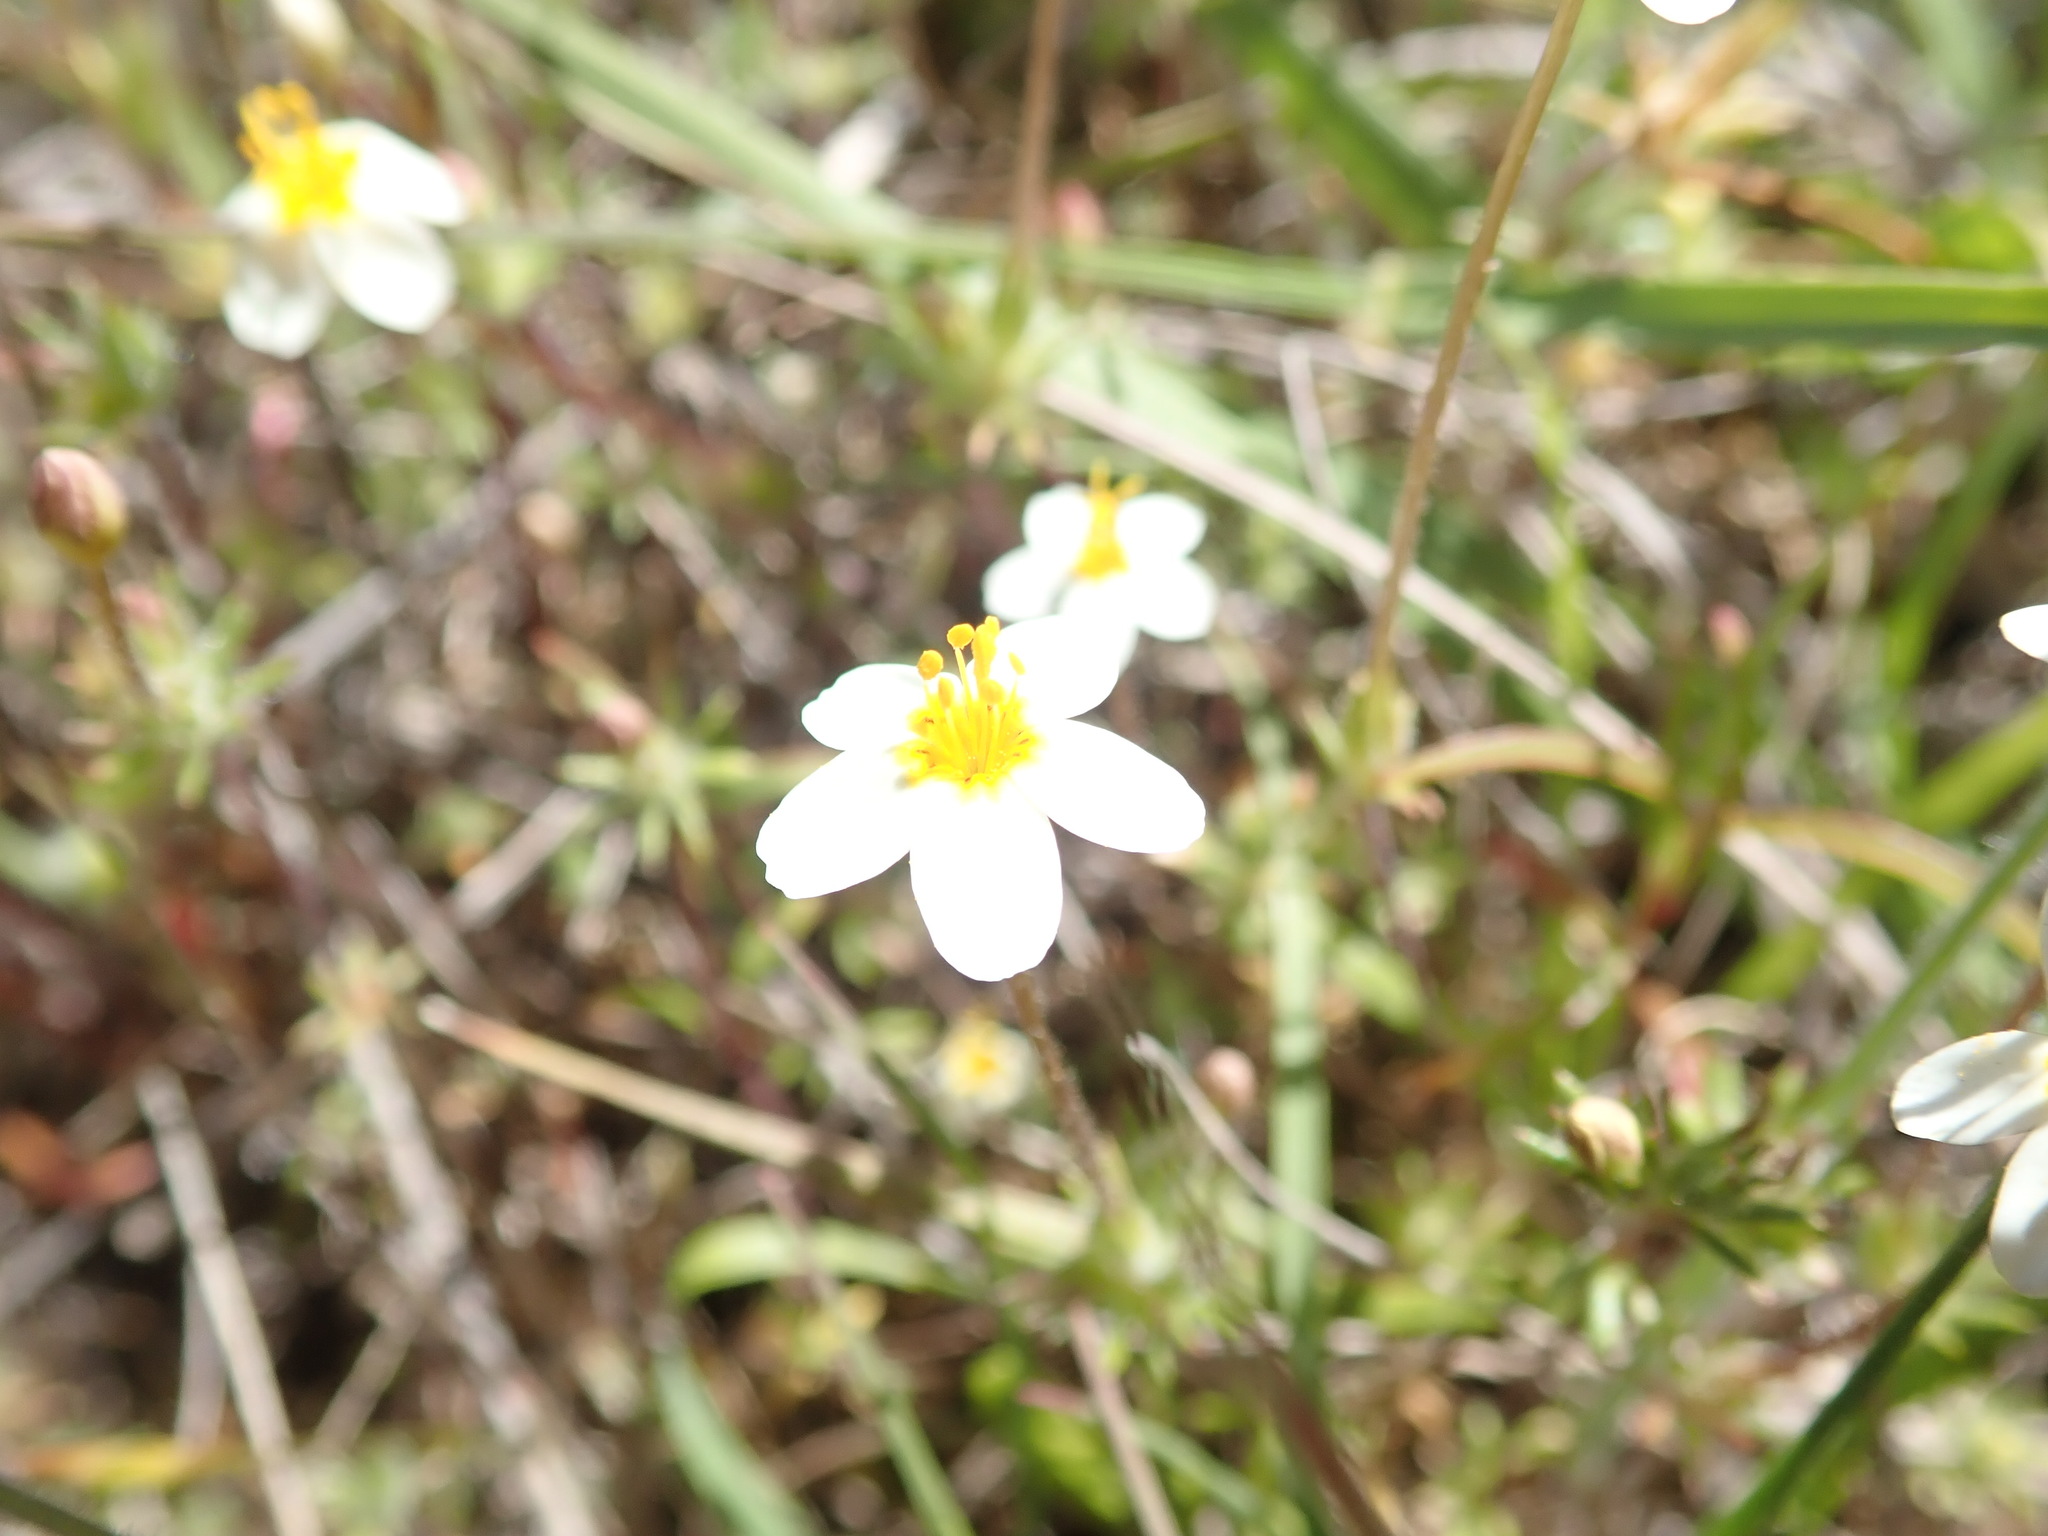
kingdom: Plantae
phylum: Tracheophyta
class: Magnoliopsida
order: Ericales
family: Polemoniaceae
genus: Leptosiphon
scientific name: Leptosiphon parviflorus
